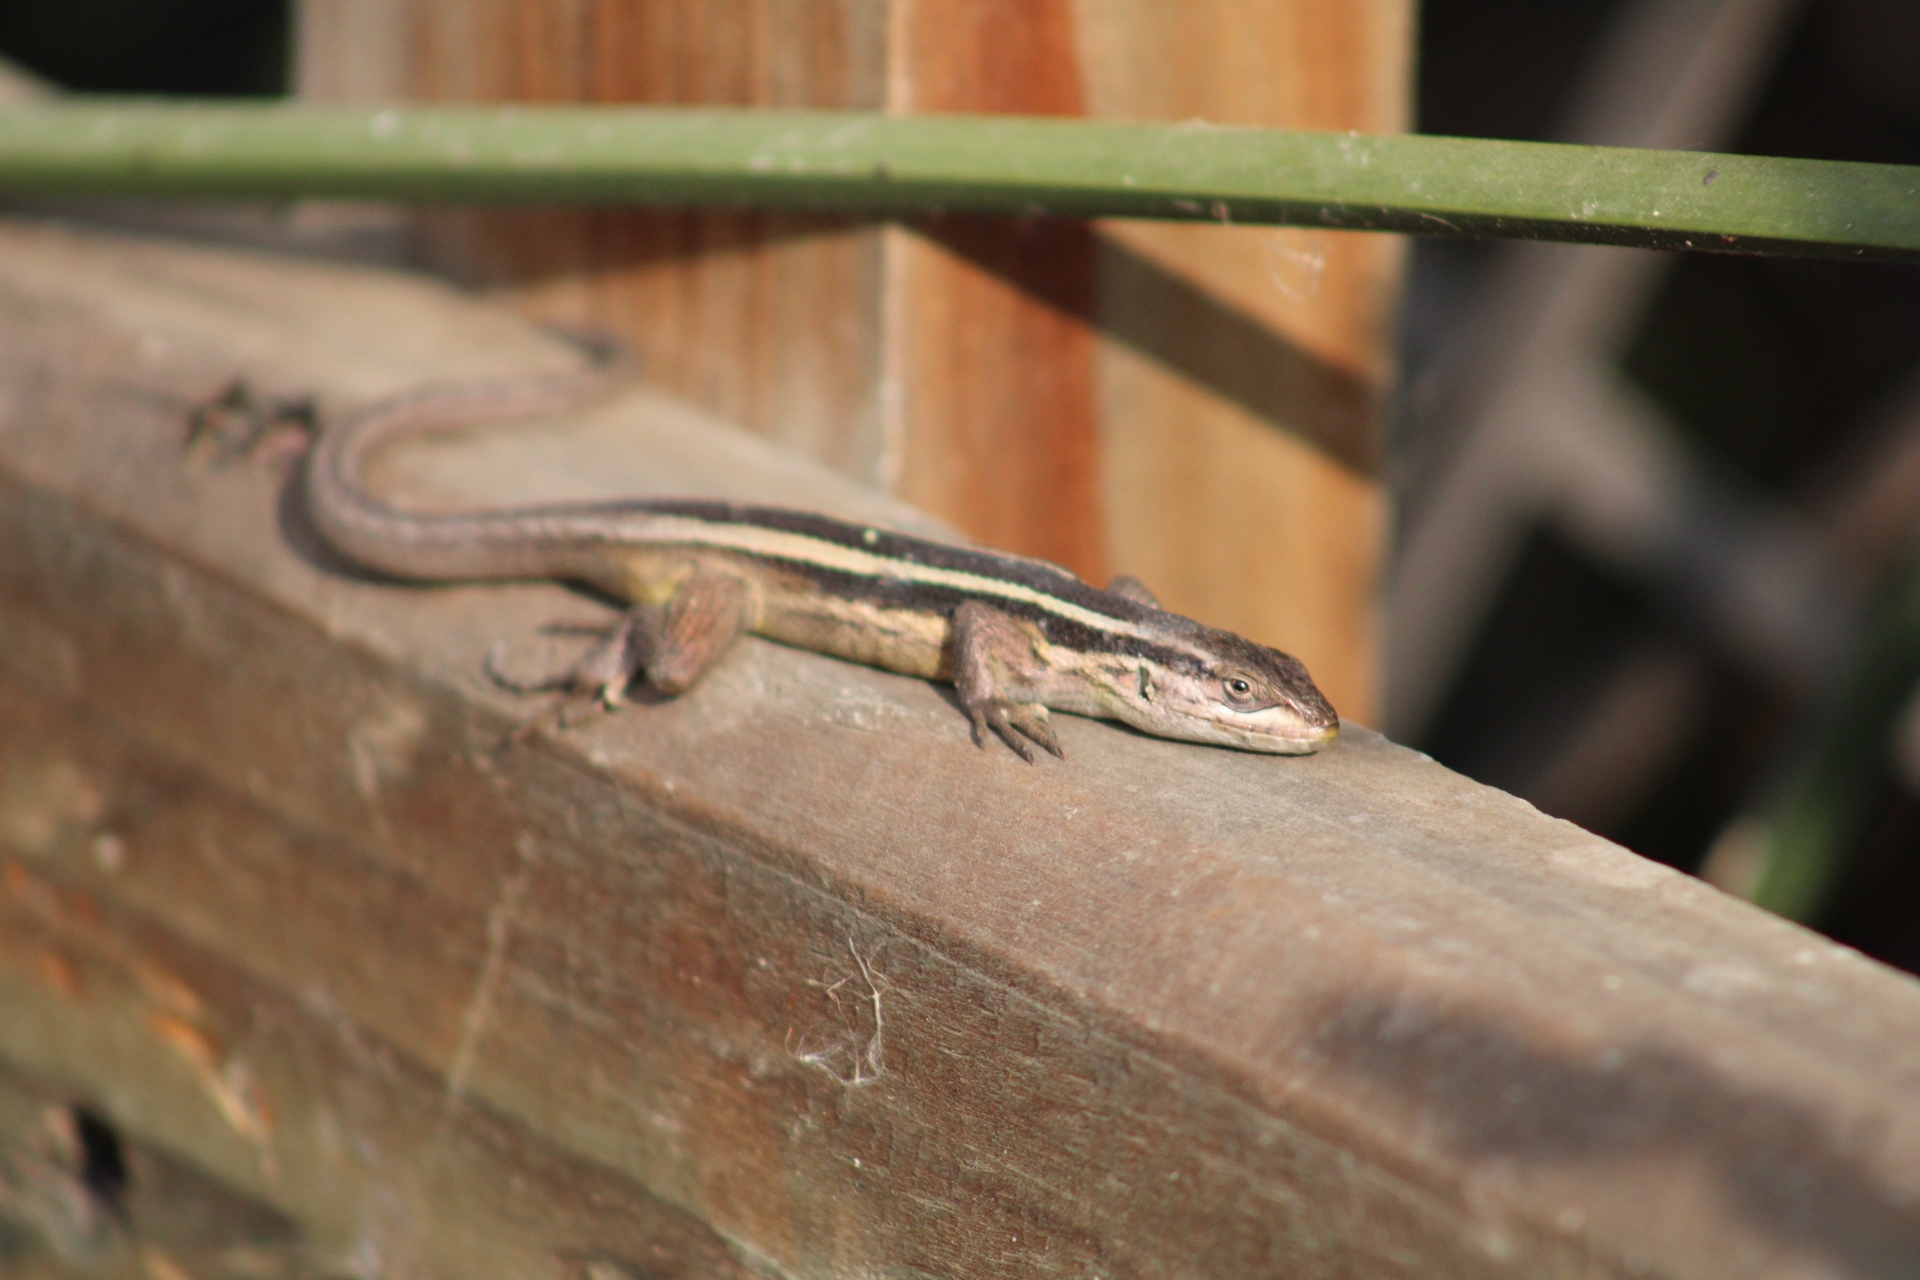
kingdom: Animalia
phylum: Chordata
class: Squamata
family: Liolaemidae
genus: Liolaemus
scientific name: Liolaemus gravenhorstii
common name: Gravenhorst's tree iguana
